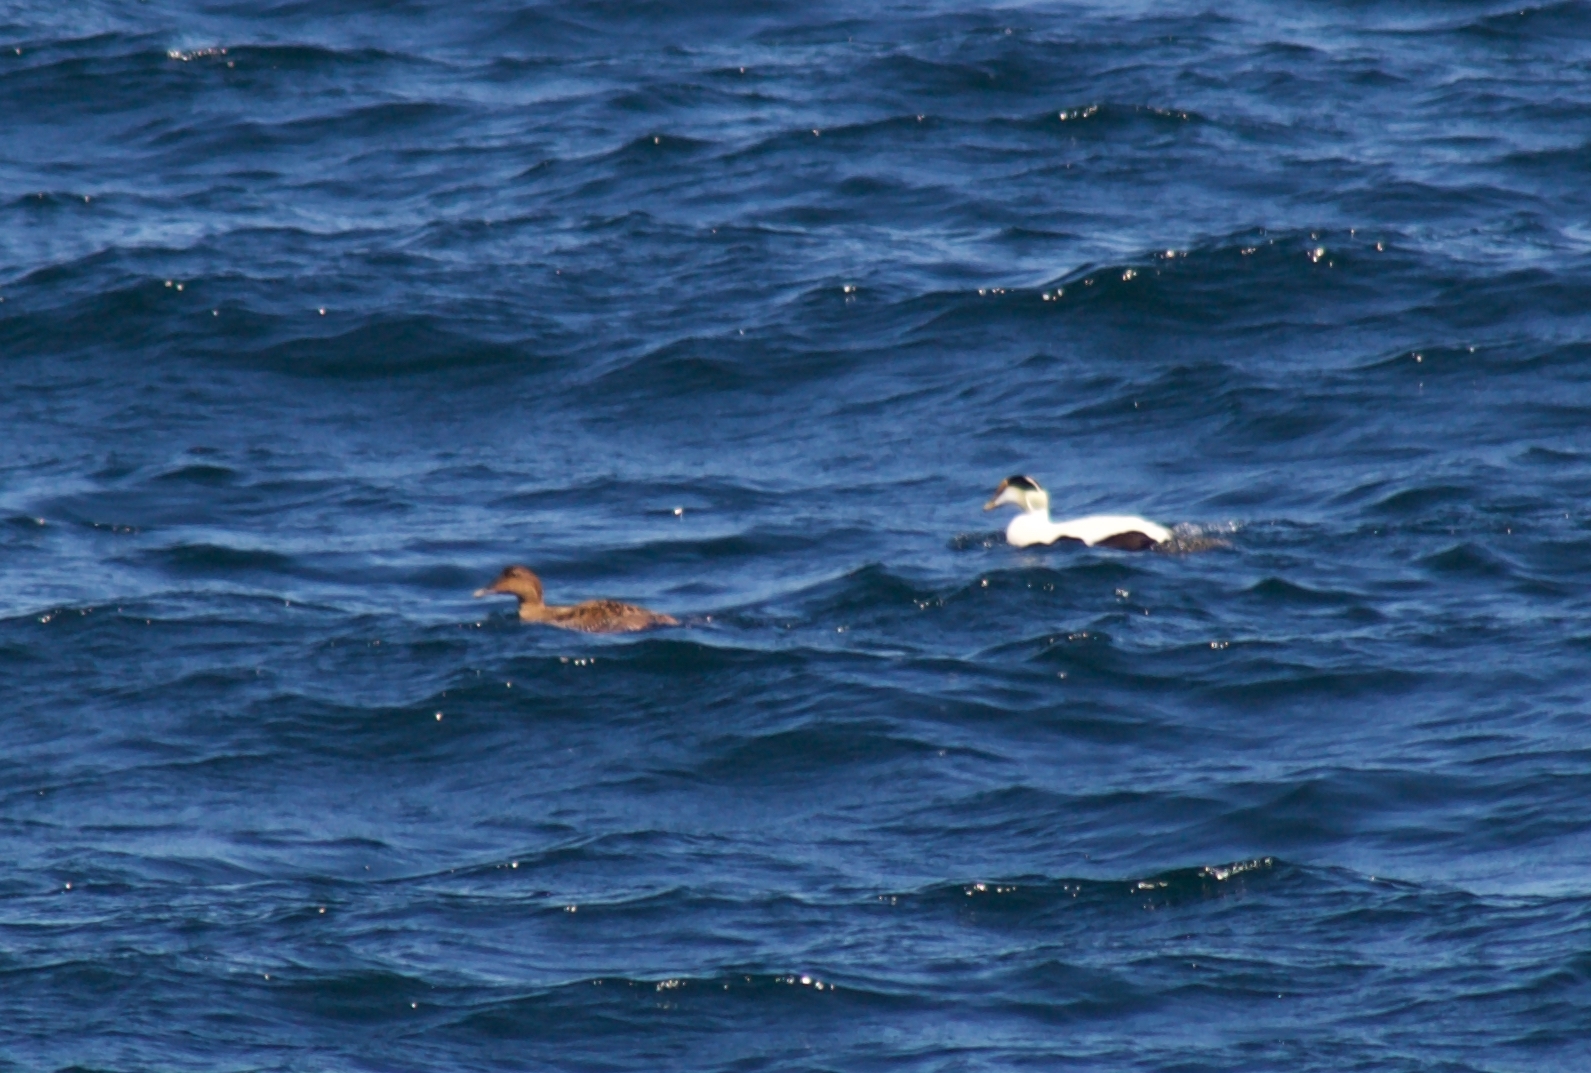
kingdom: Animalia
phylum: Chordata
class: Aves
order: Anseriformes
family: Anatidae
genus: Somateria
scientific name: Somateria mollissima
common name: Common eider
